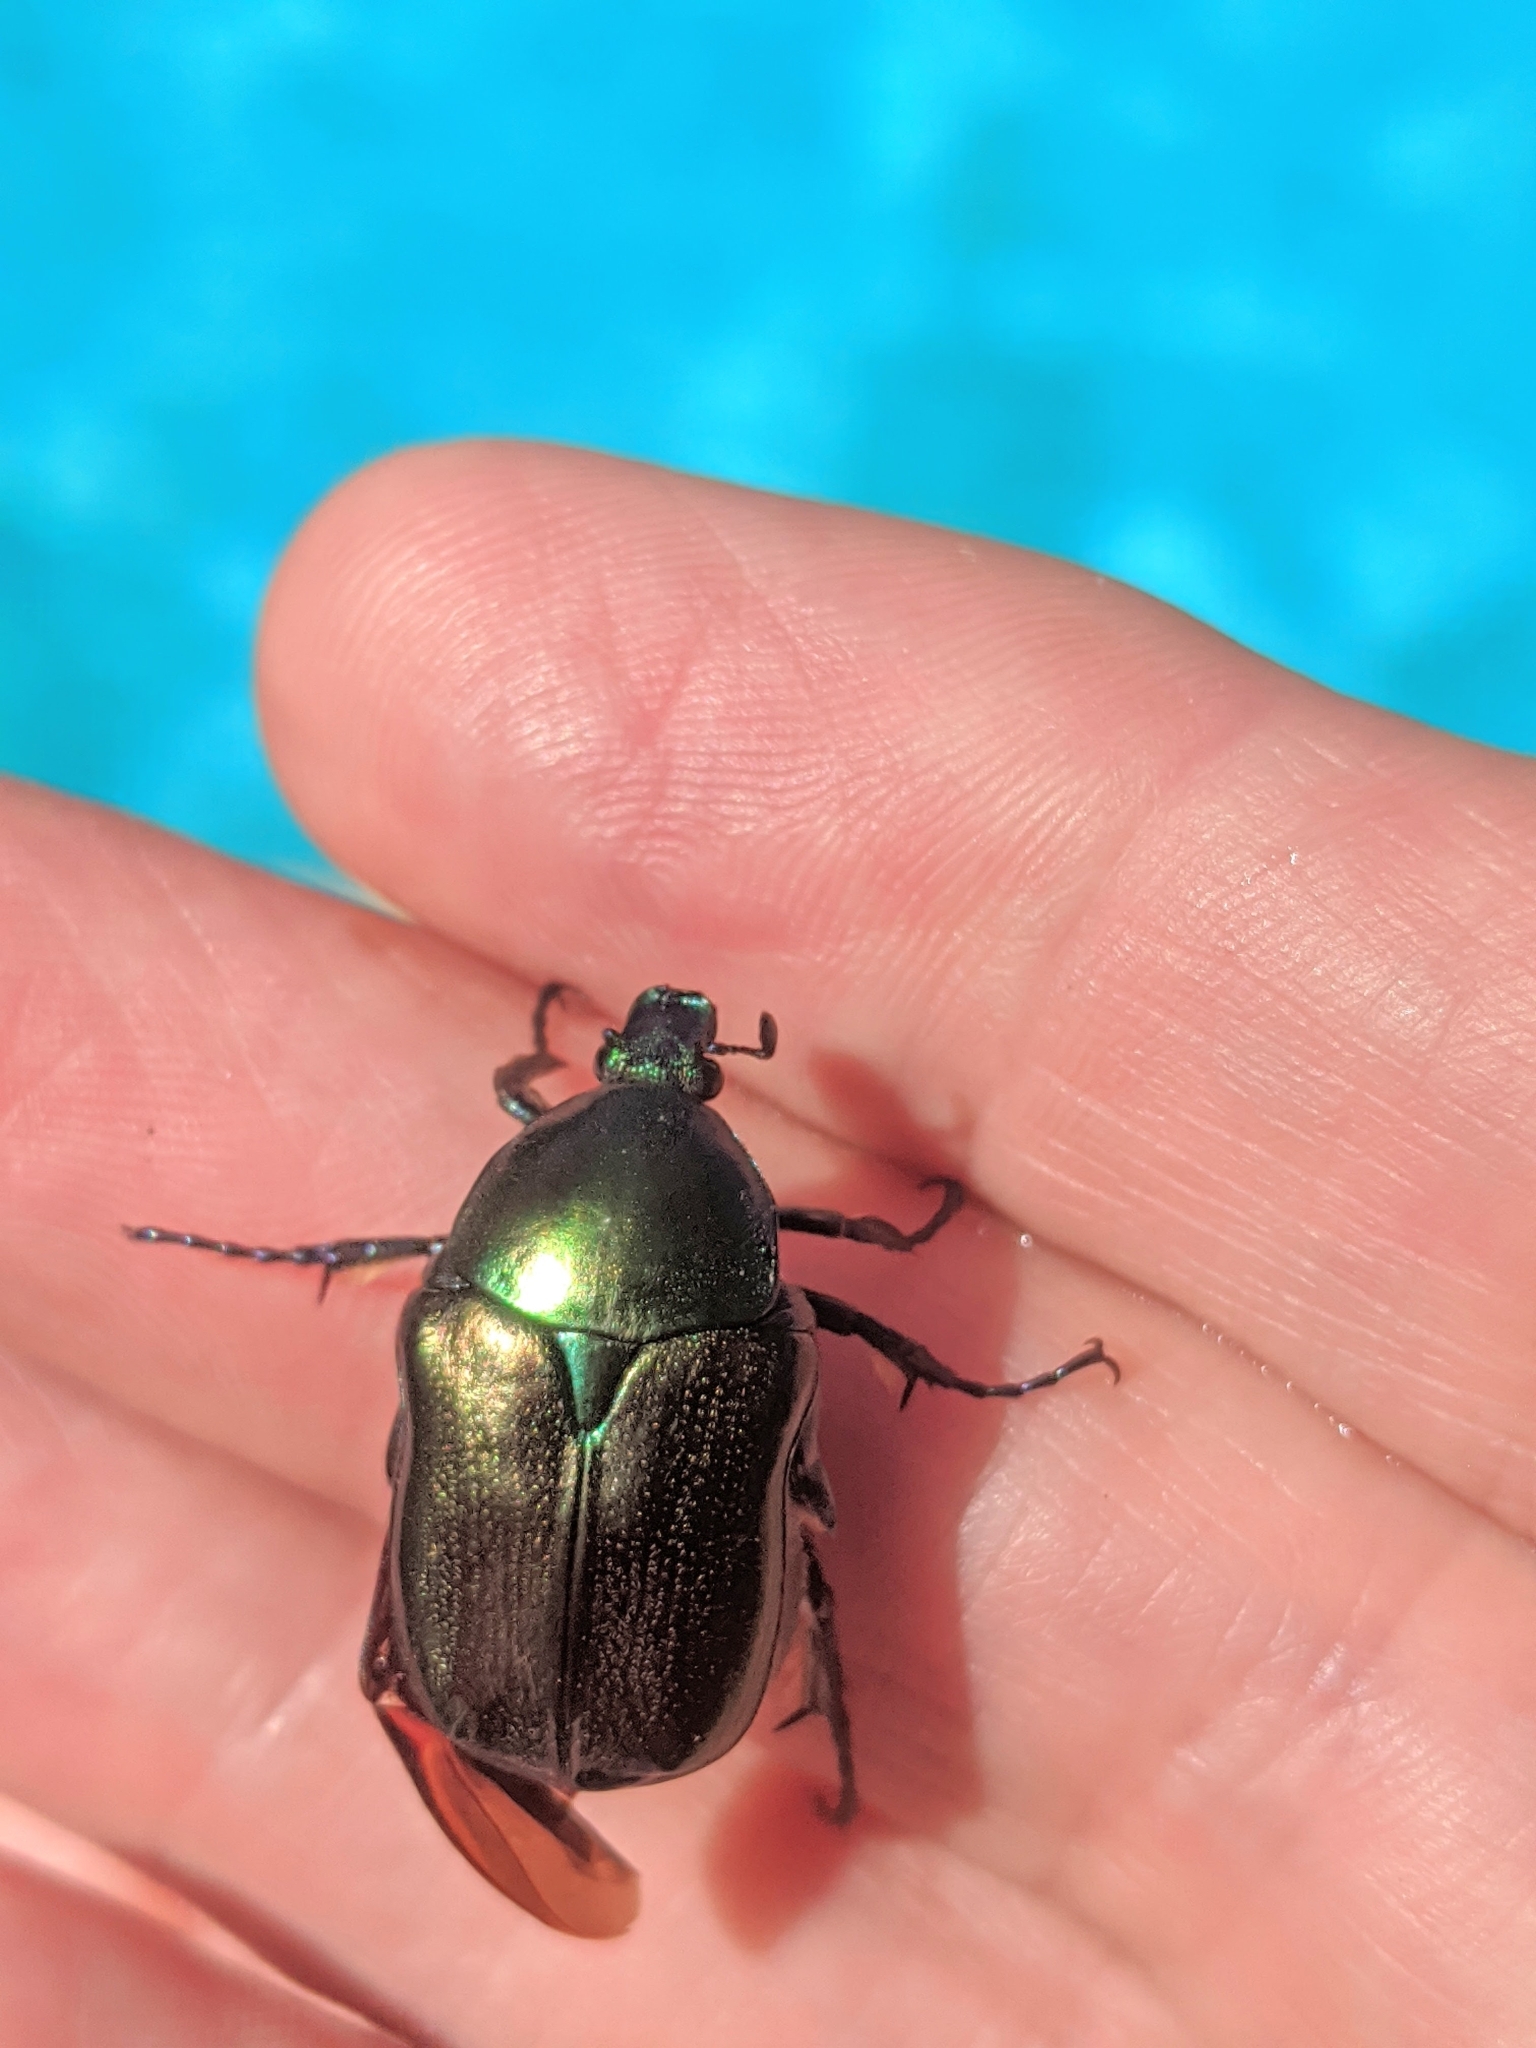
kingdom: Animalia
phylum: Arthropoda
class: Insecta
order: Coleoptera
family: Scarabaeidae
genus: Protaetia
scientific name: Protaetia angustata
